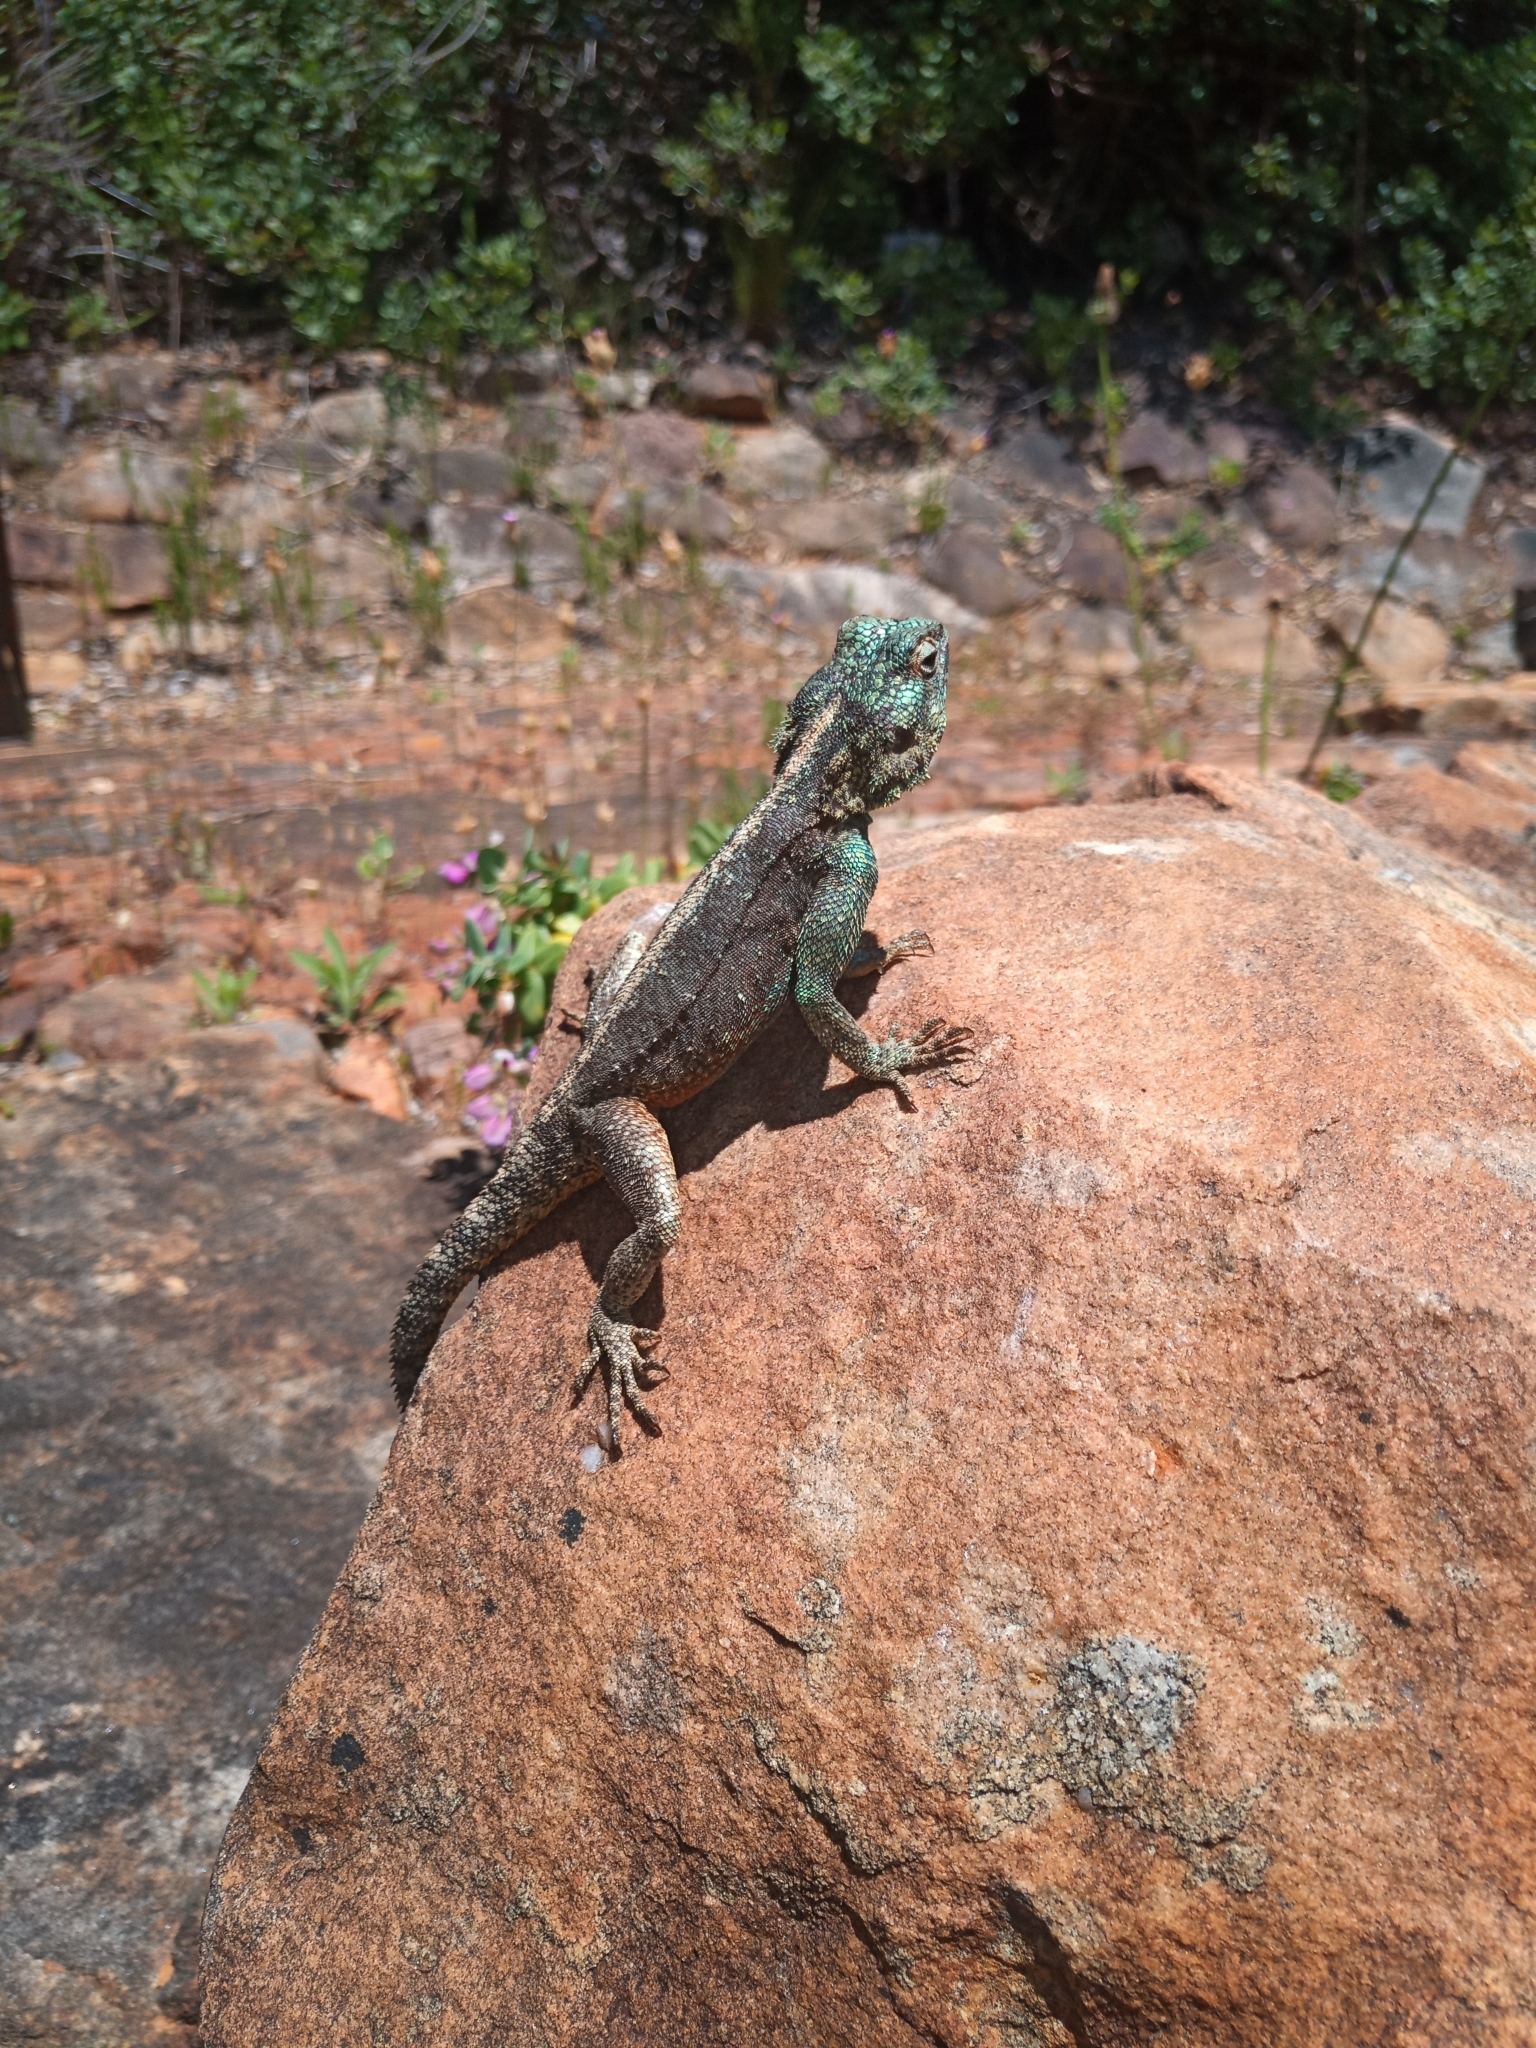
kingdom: Animalia
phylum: Chordata
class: Squamata
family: Agamidae
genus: Agama
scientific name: Agama atra
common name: Southern african rock agama
